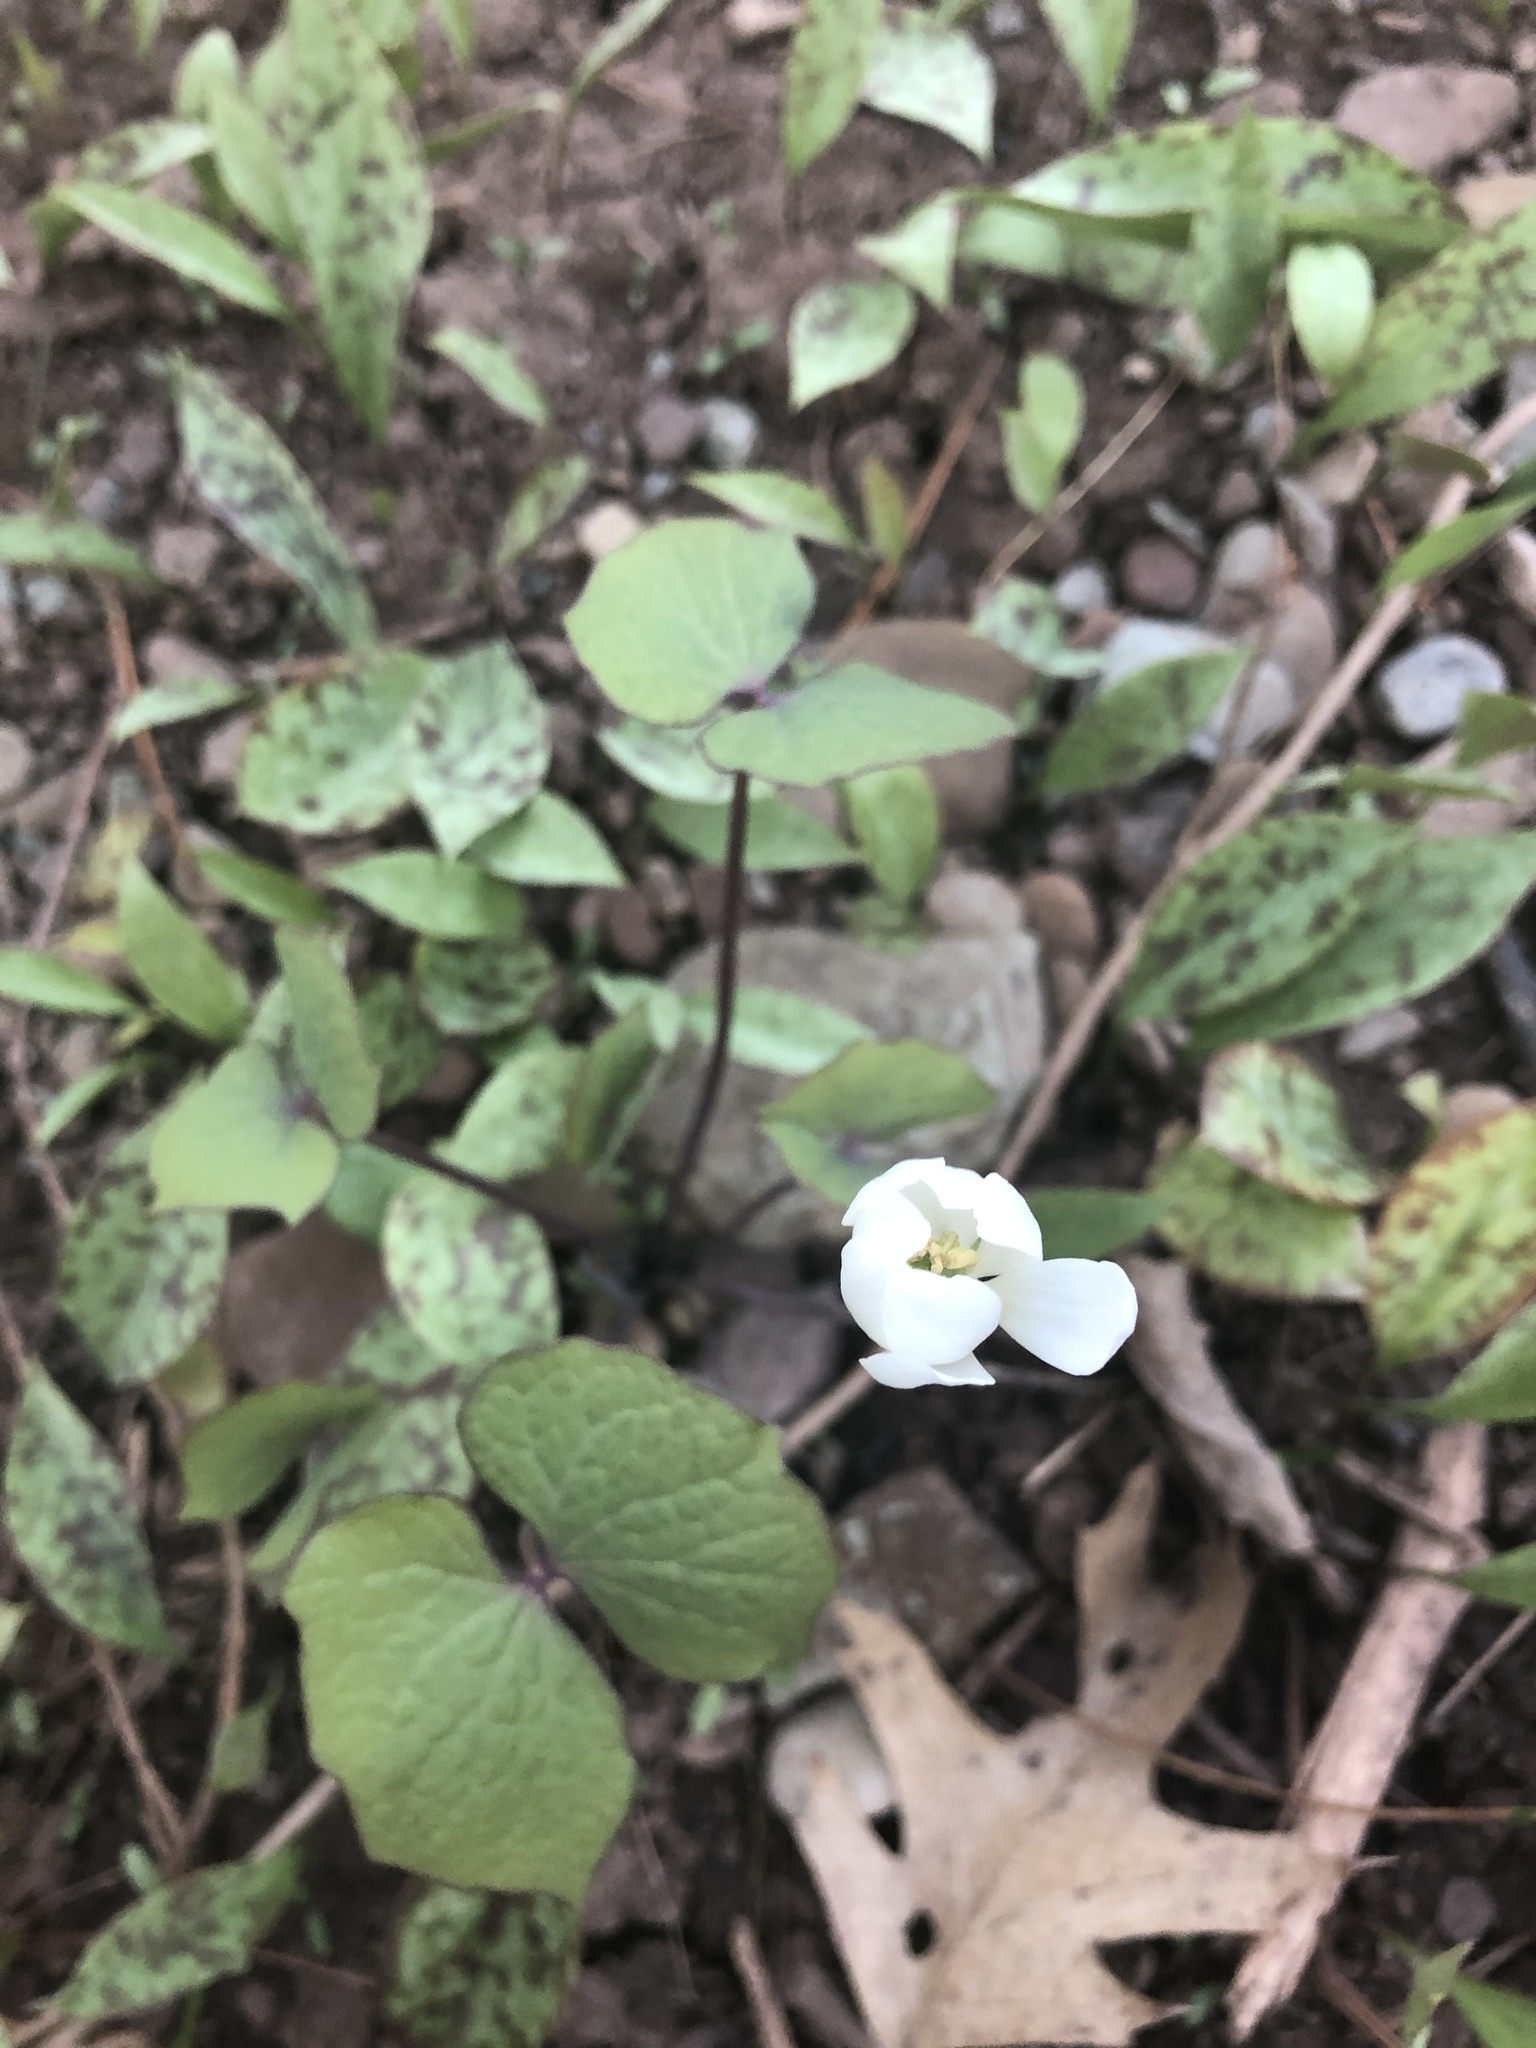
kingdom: Plantae
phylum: Tracheophyta
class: Magnoliopsida
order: Ranunculales
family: Berberidaceae
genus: Jeffersonia
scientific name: Jeffersonia diphylla
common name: Rheumatism-root
